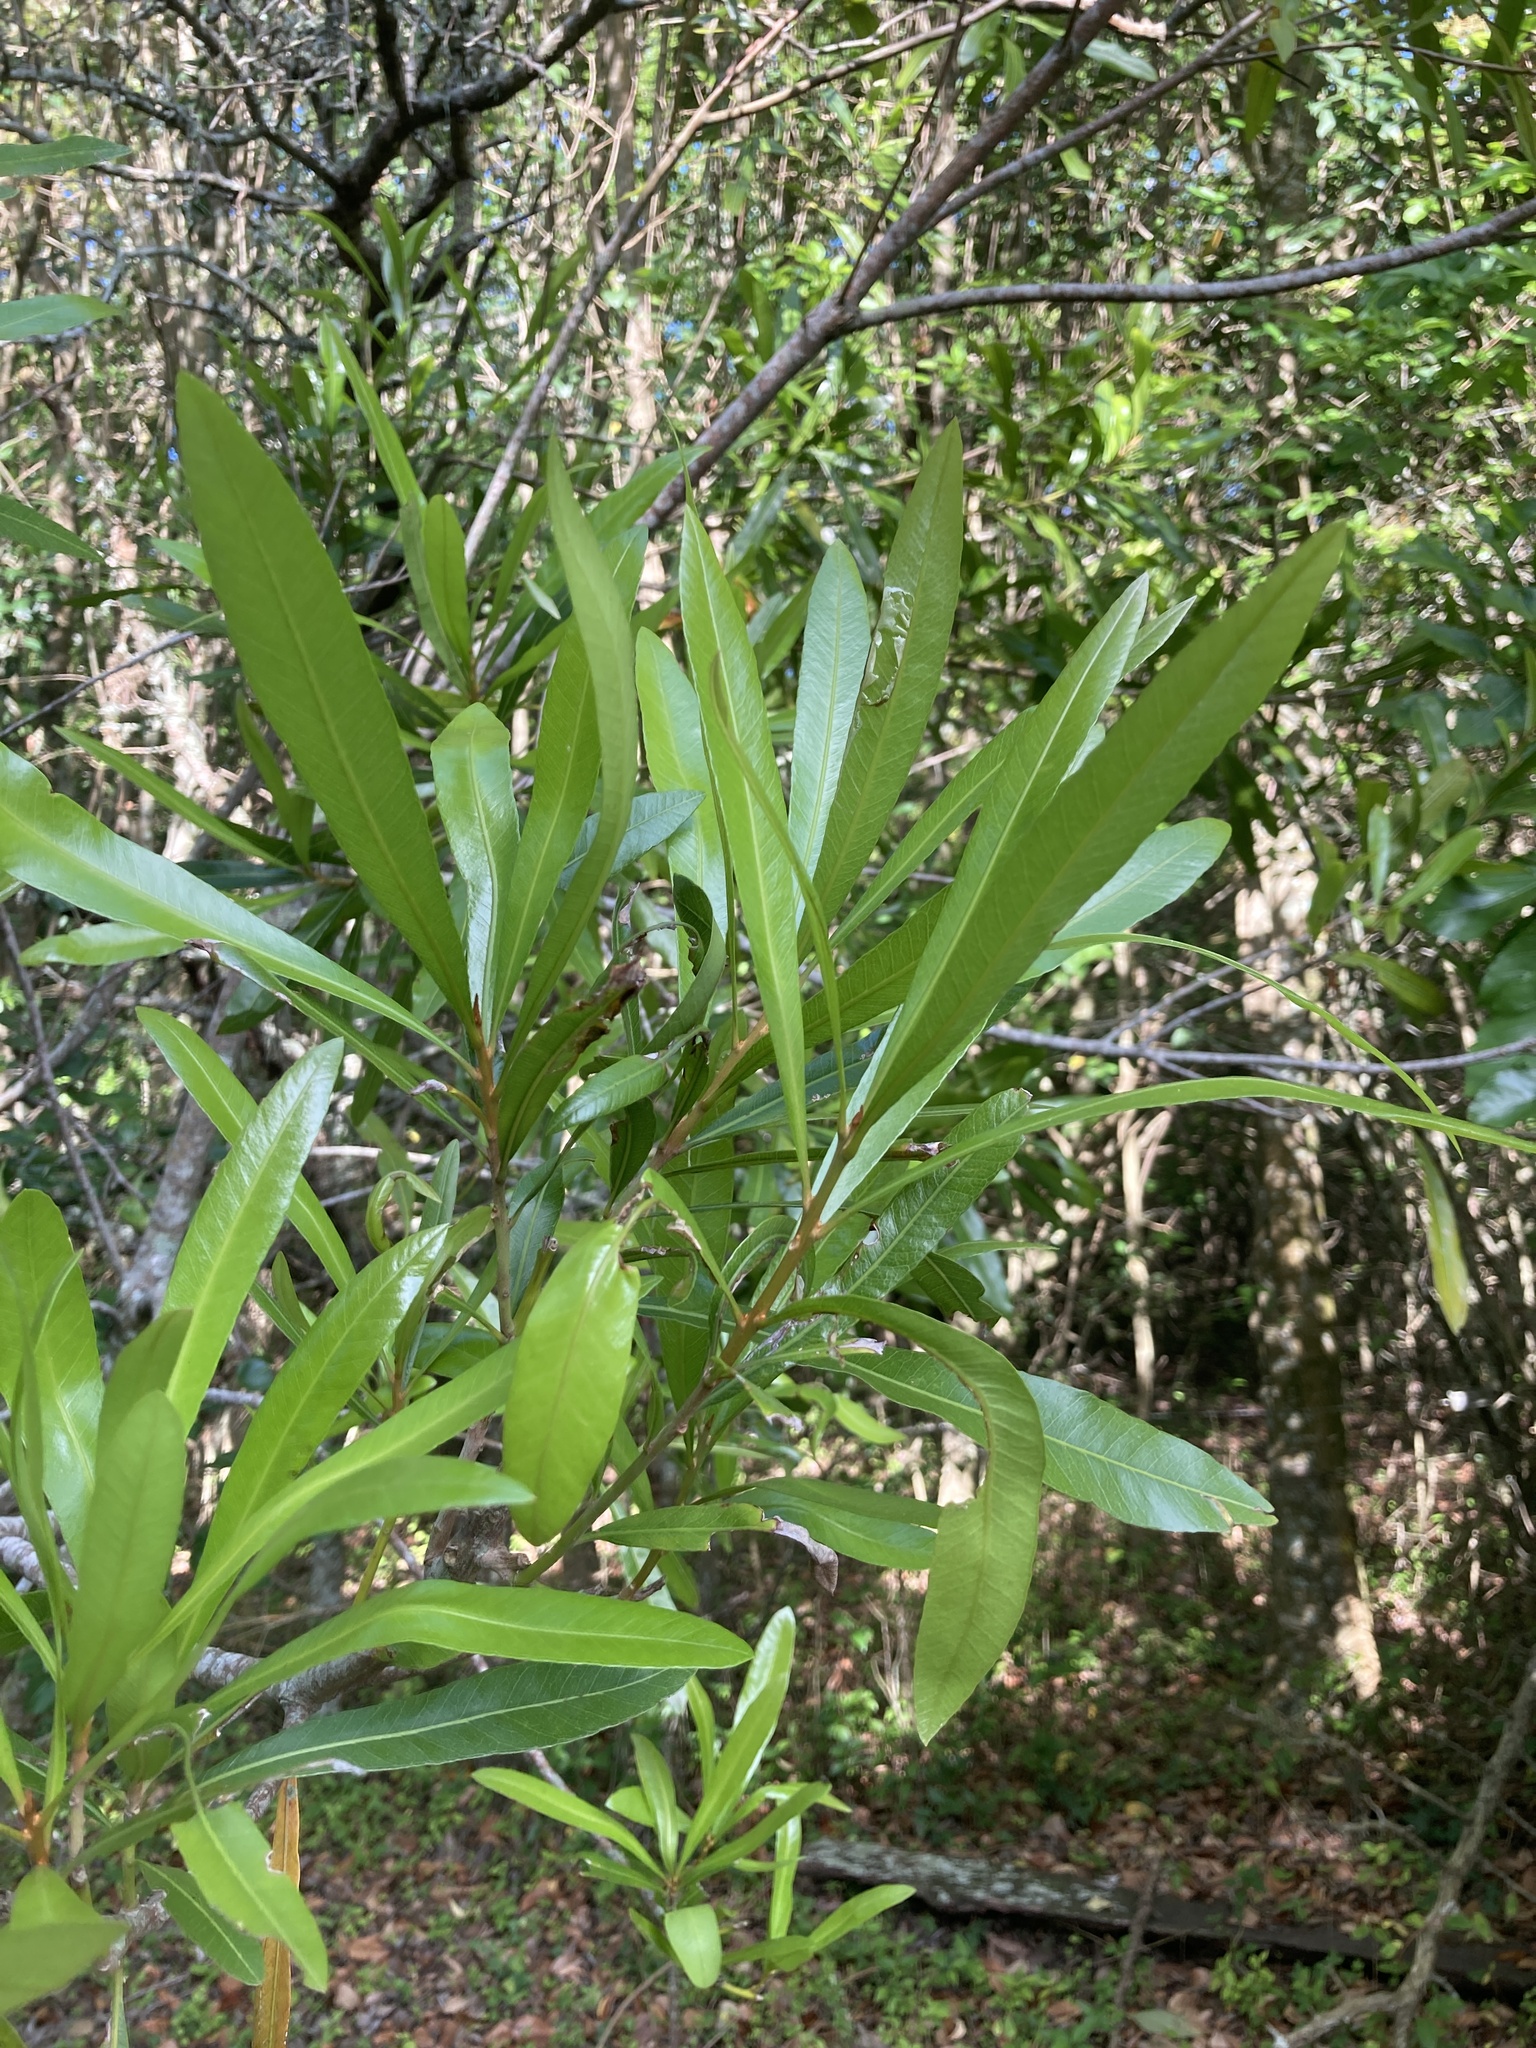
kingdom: Plantae
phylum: Tracheophyta
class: Magnoliopsida
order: Ericales
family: Sapotaceae
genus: Labatia
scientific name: Labatia salicifolia
